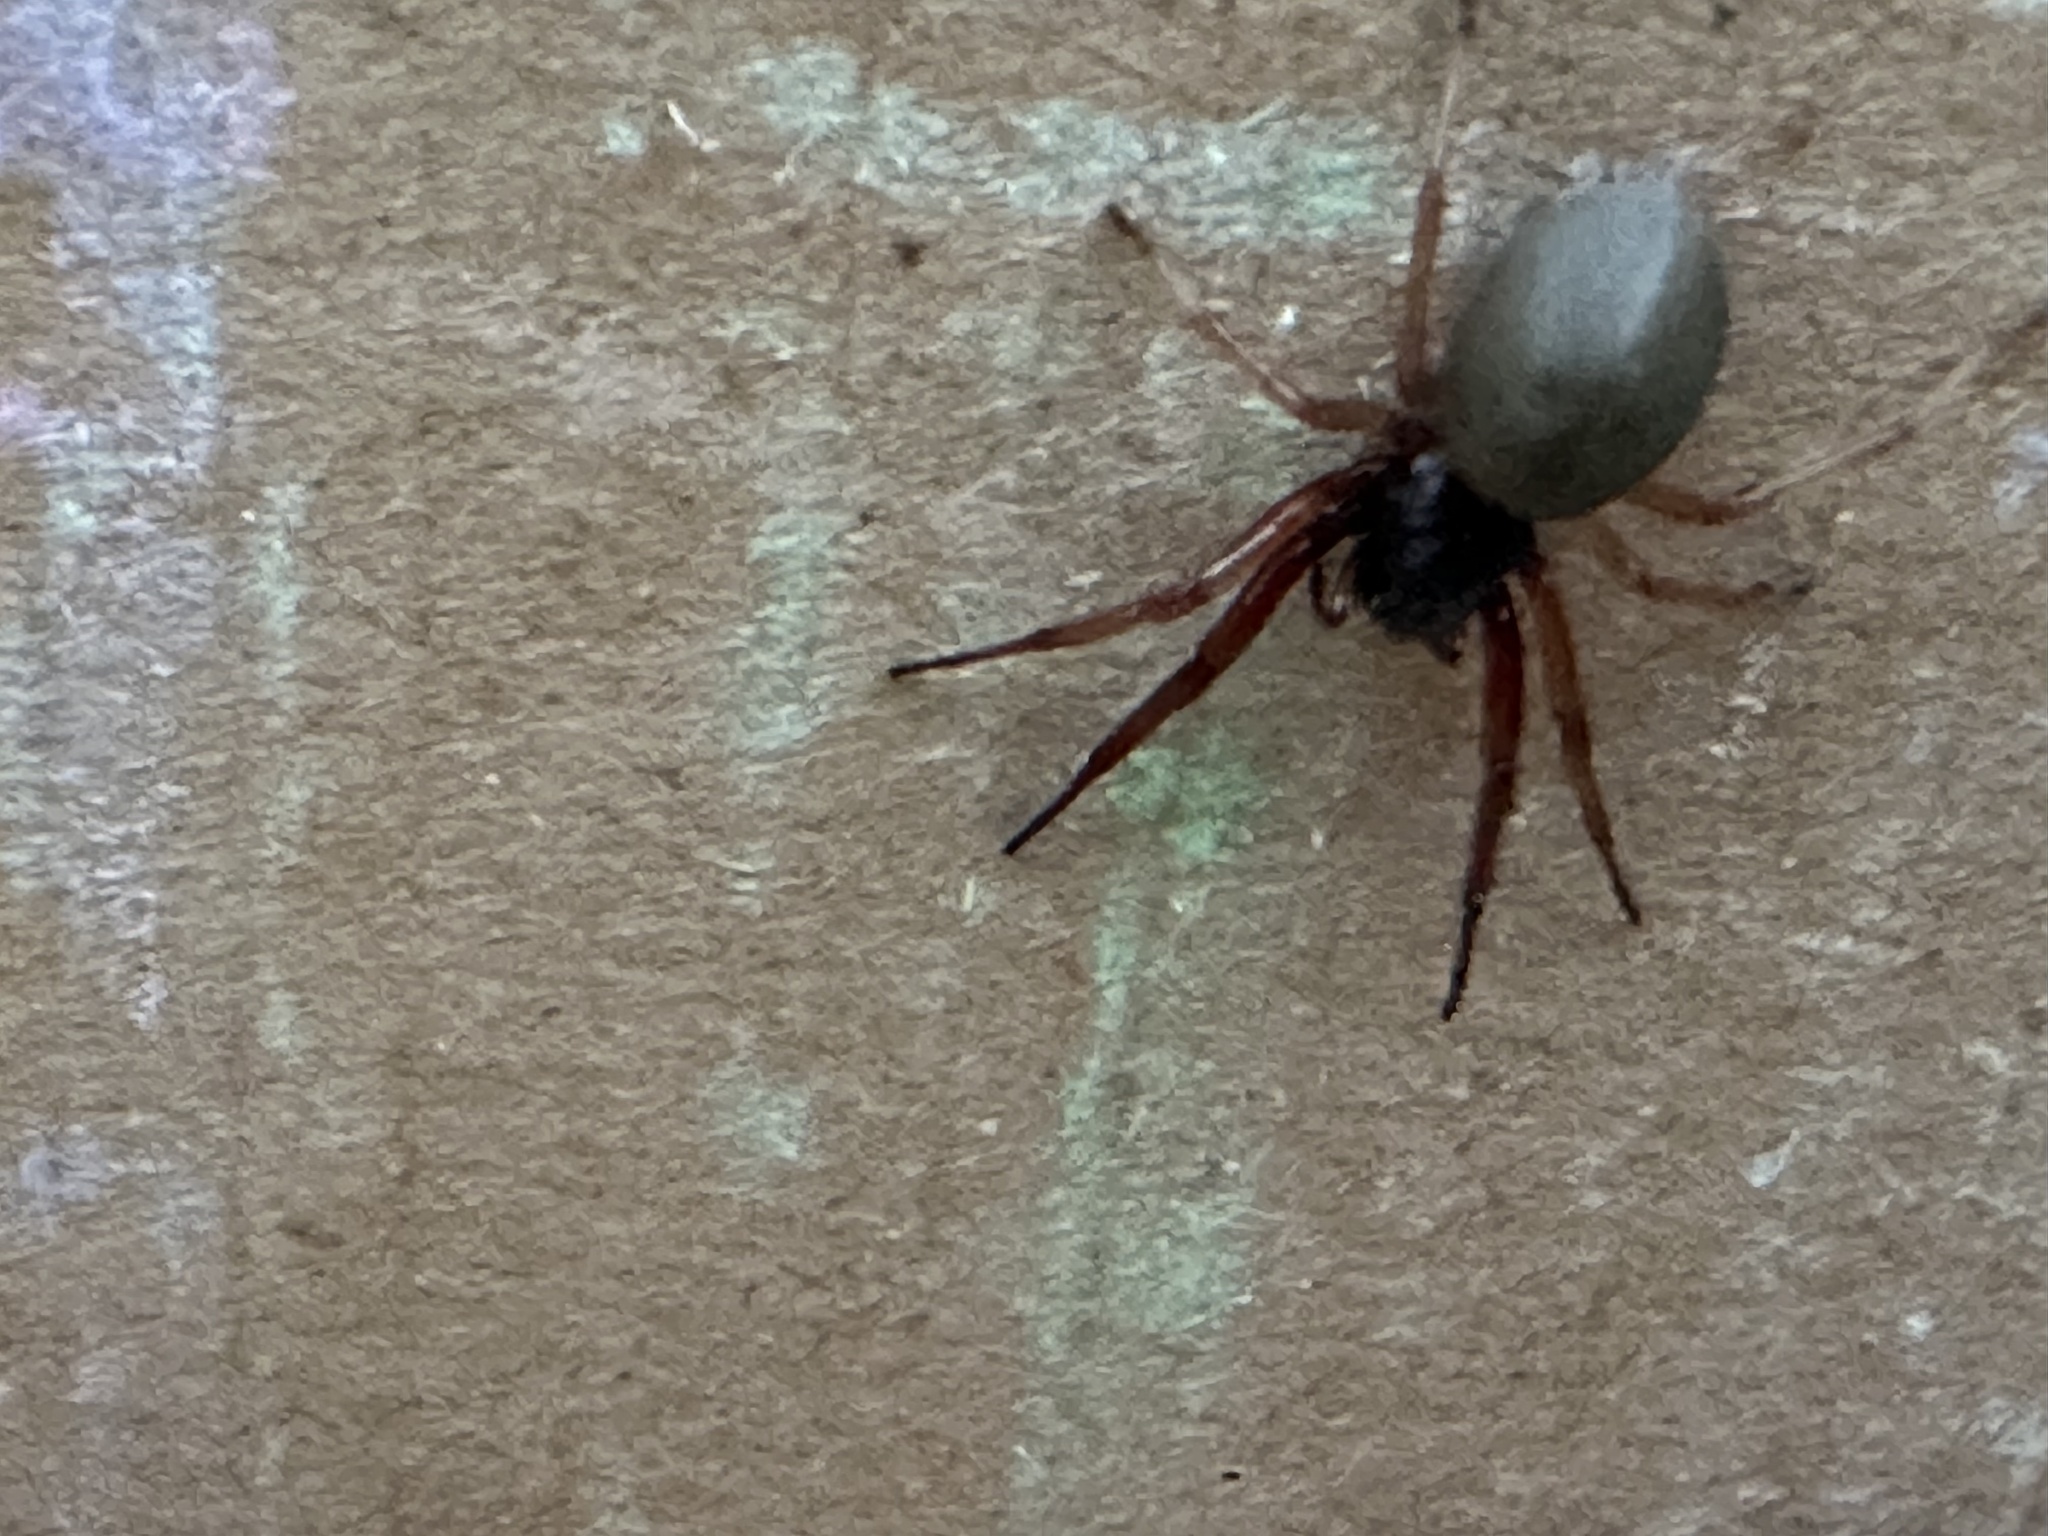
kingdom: Animalia
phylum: Arthropoda
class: Arachnida
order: Araneae
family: Trachelidae
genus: Trachelas
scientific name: Trachelas tranquillus
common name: Broad-faced sac spider
